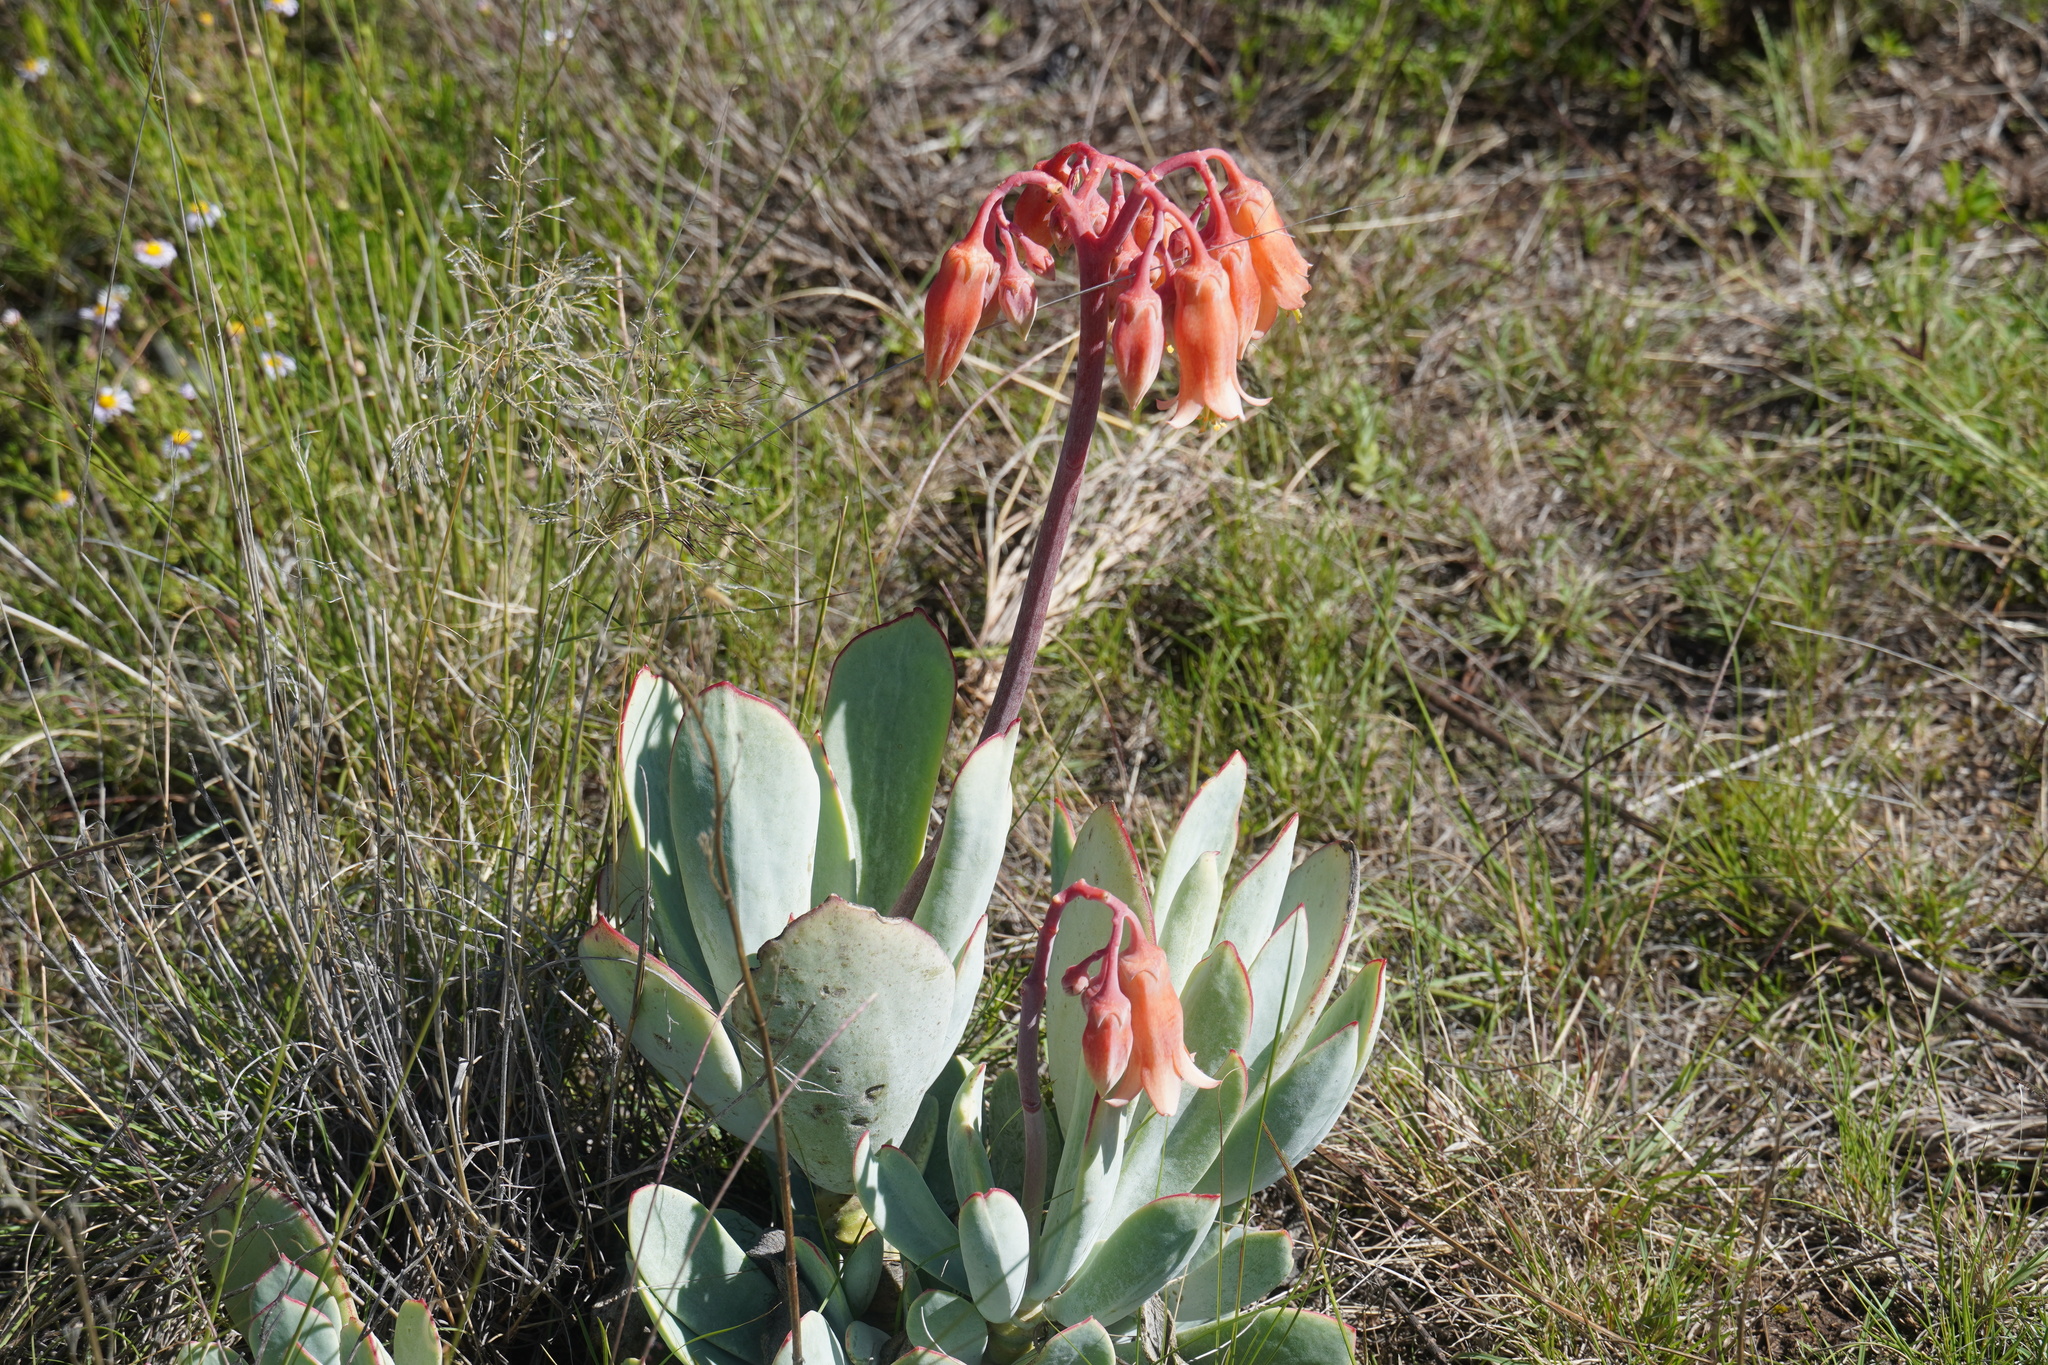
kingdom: Plantae
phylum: Tracheophyta
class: Magnoliopsida
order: Saxifragales
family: Crassulaceae
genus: Cotyledon
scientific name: Cotyledon orbiculata
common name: Pig's ear
